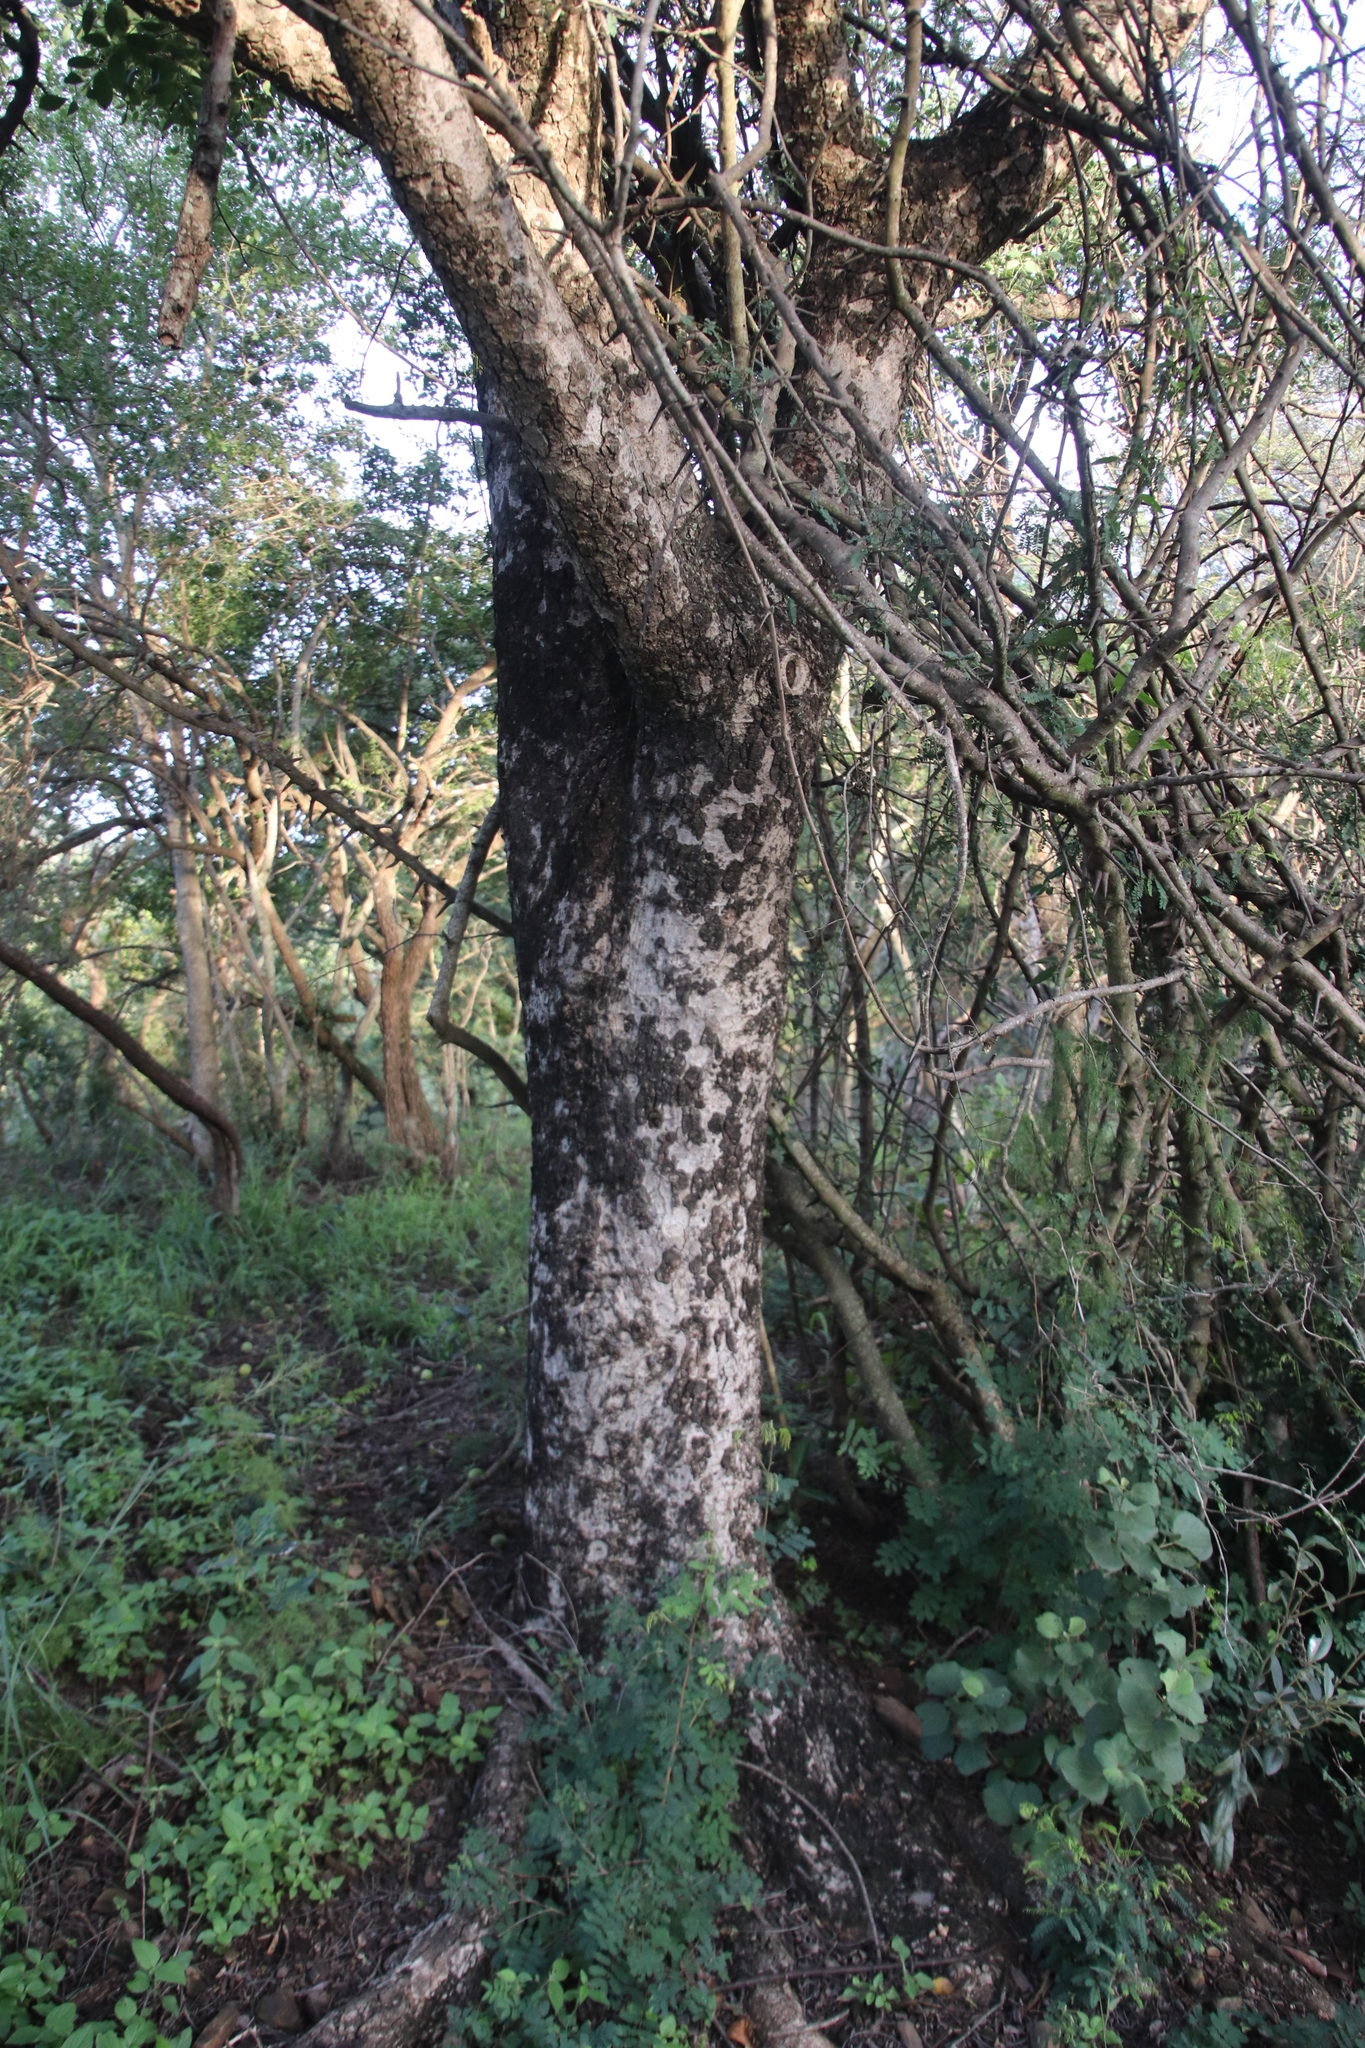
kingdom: Plantae
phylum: Tracheophyta
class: Magnoliopsida
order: Sapindales
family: Anacardiaceae
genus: Sclerocarya
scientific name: Sclerocarya birrea
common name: Marula
